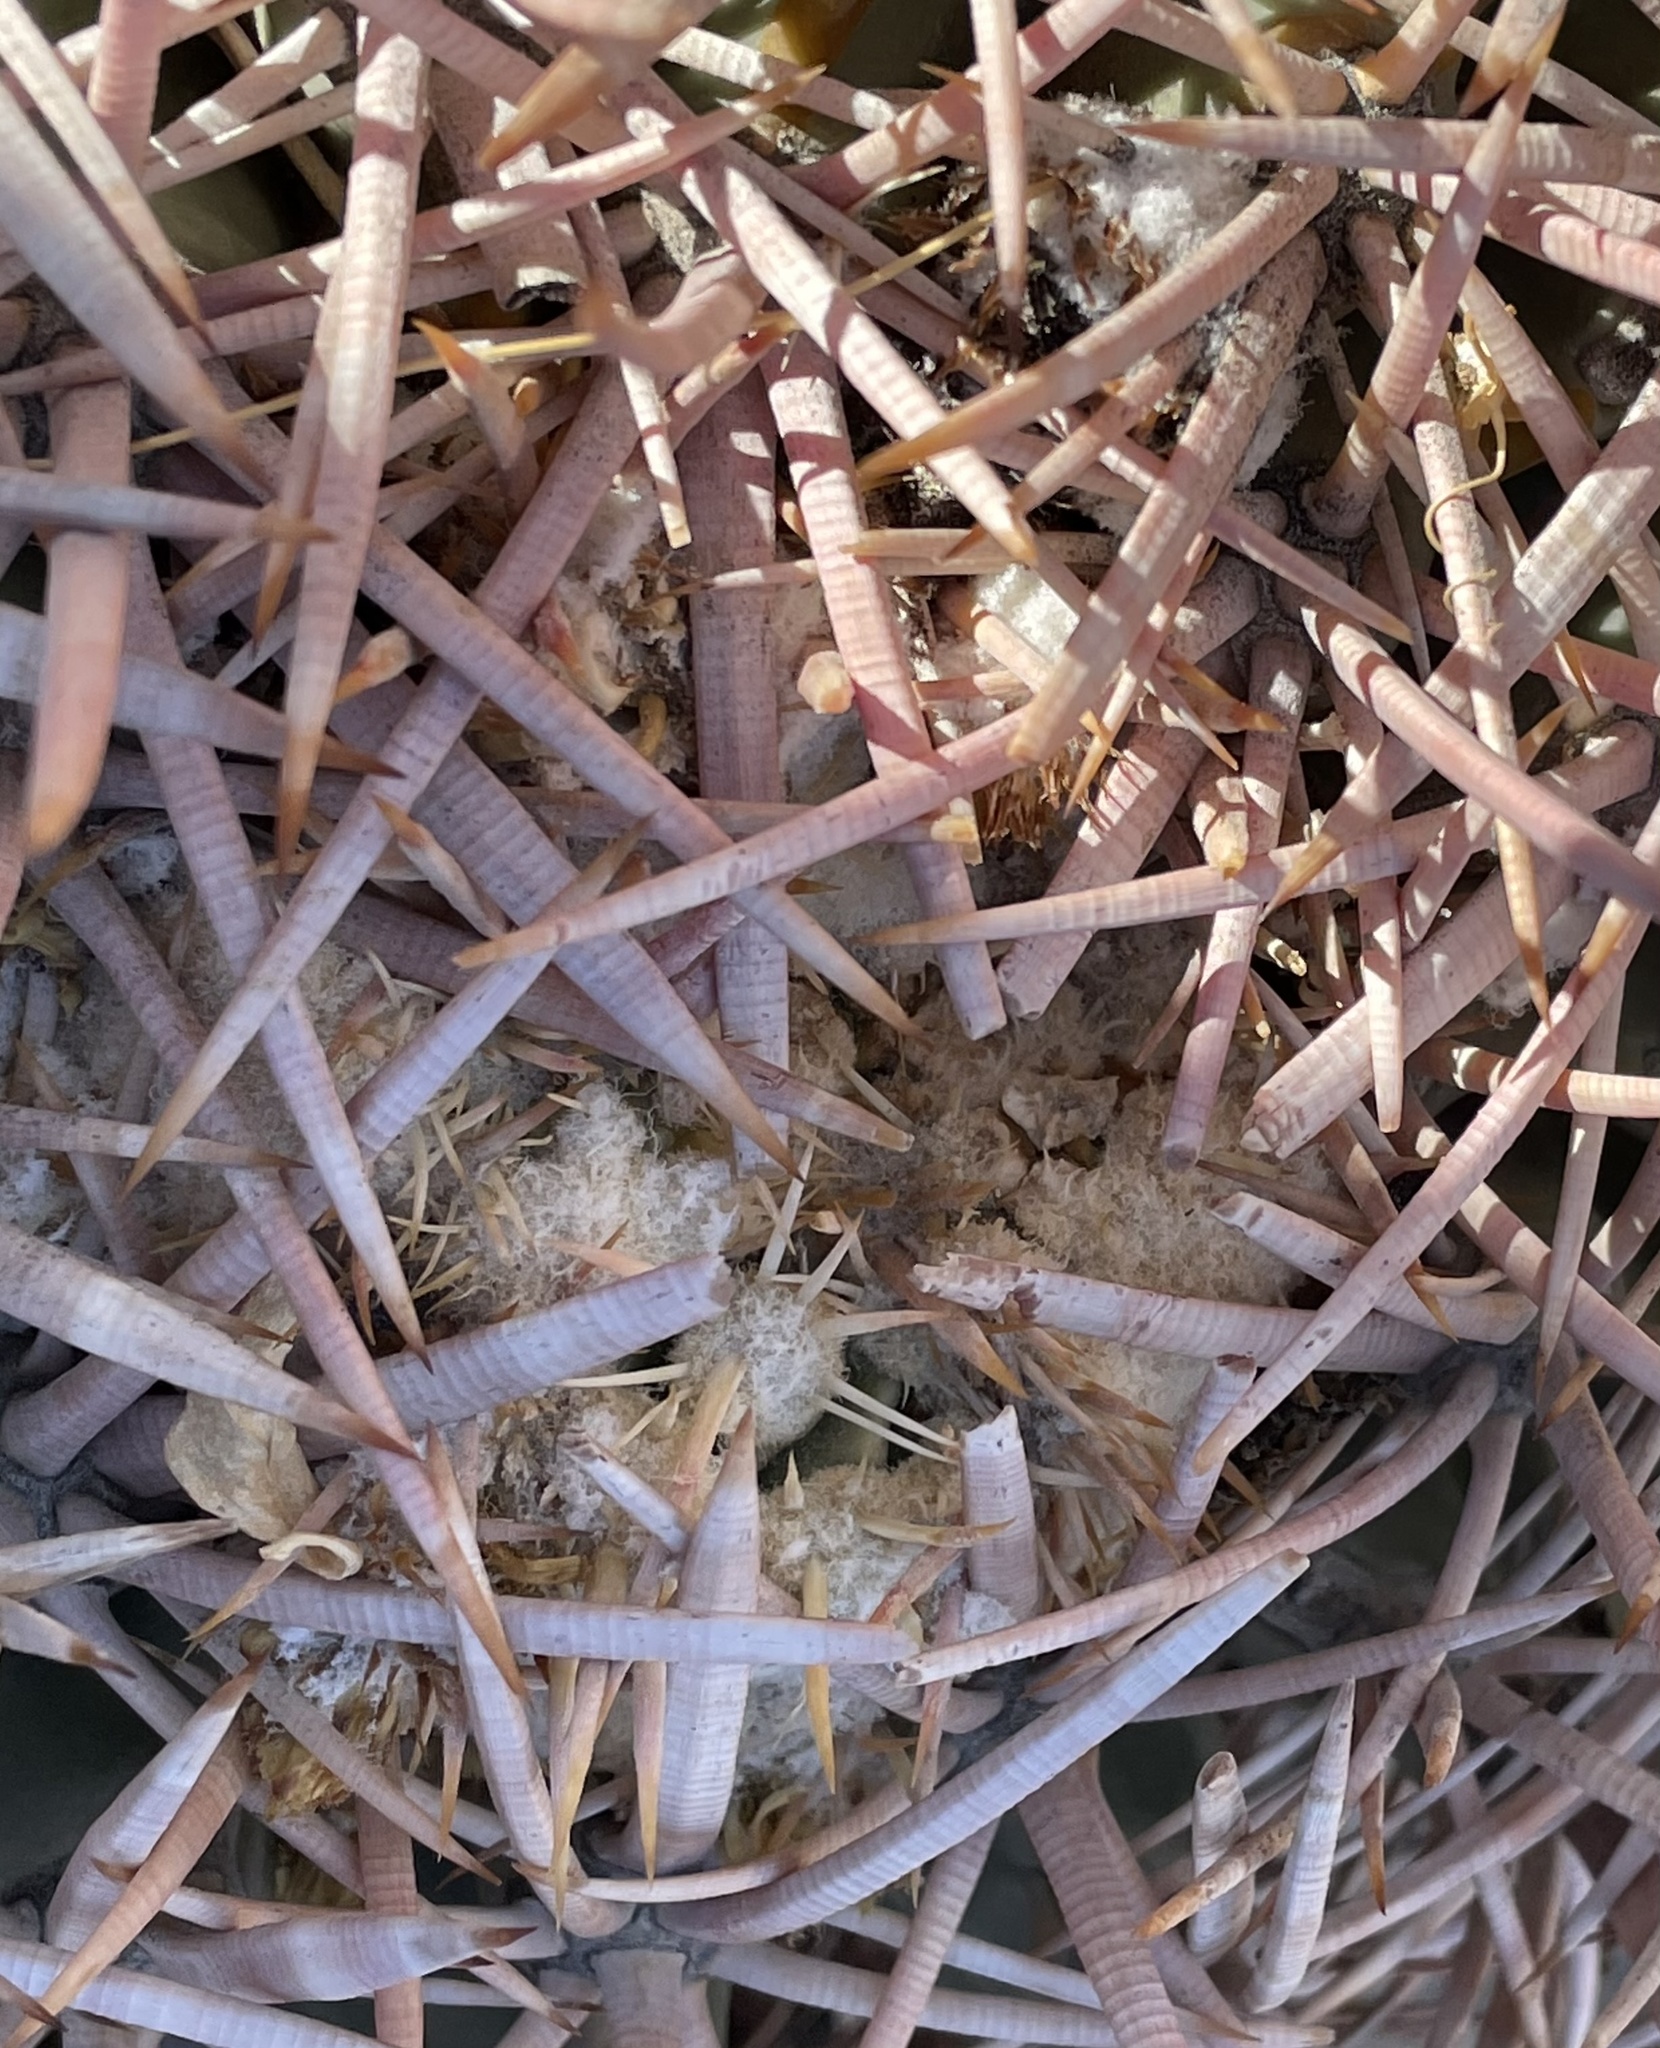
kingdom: Plantae
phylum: Tracheophyta
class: Magnoliopsida
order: Caryophyllales
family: Cactaceae
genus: Echinocactus
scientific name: Echinocactus polycephalus
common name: Cottontop cactus
